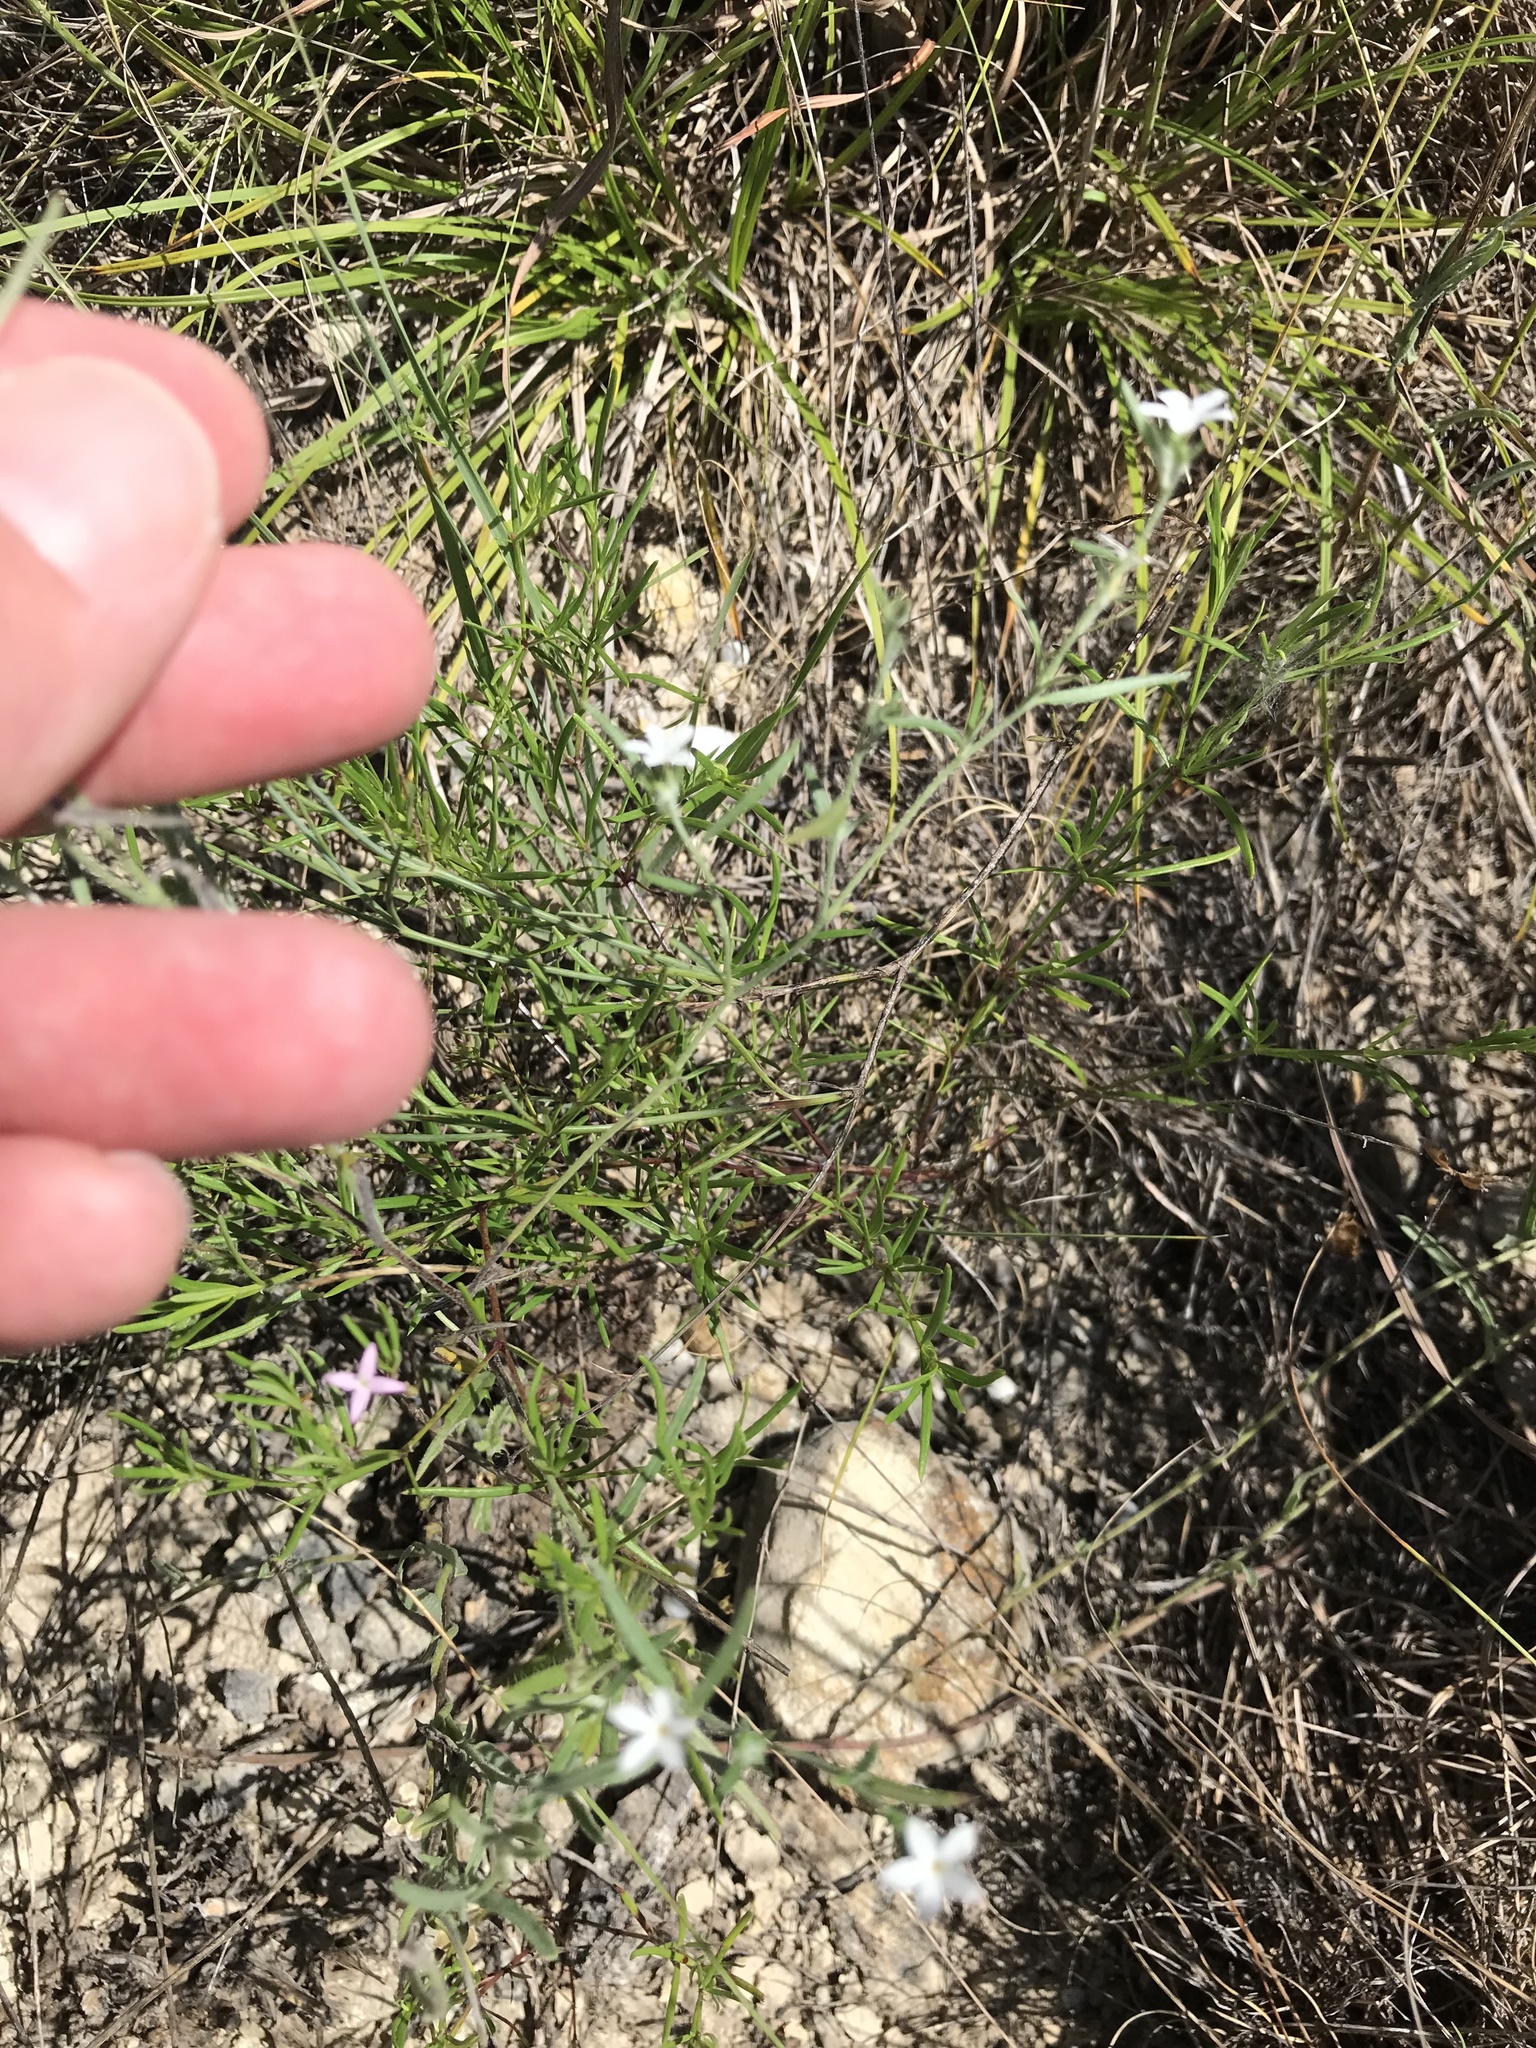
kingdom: Plantae
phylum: Tracheophyta
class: Magnoliopsida
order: Boraginales
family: Heliotropiaceae
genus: Euploca
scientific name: Euploca tenella
